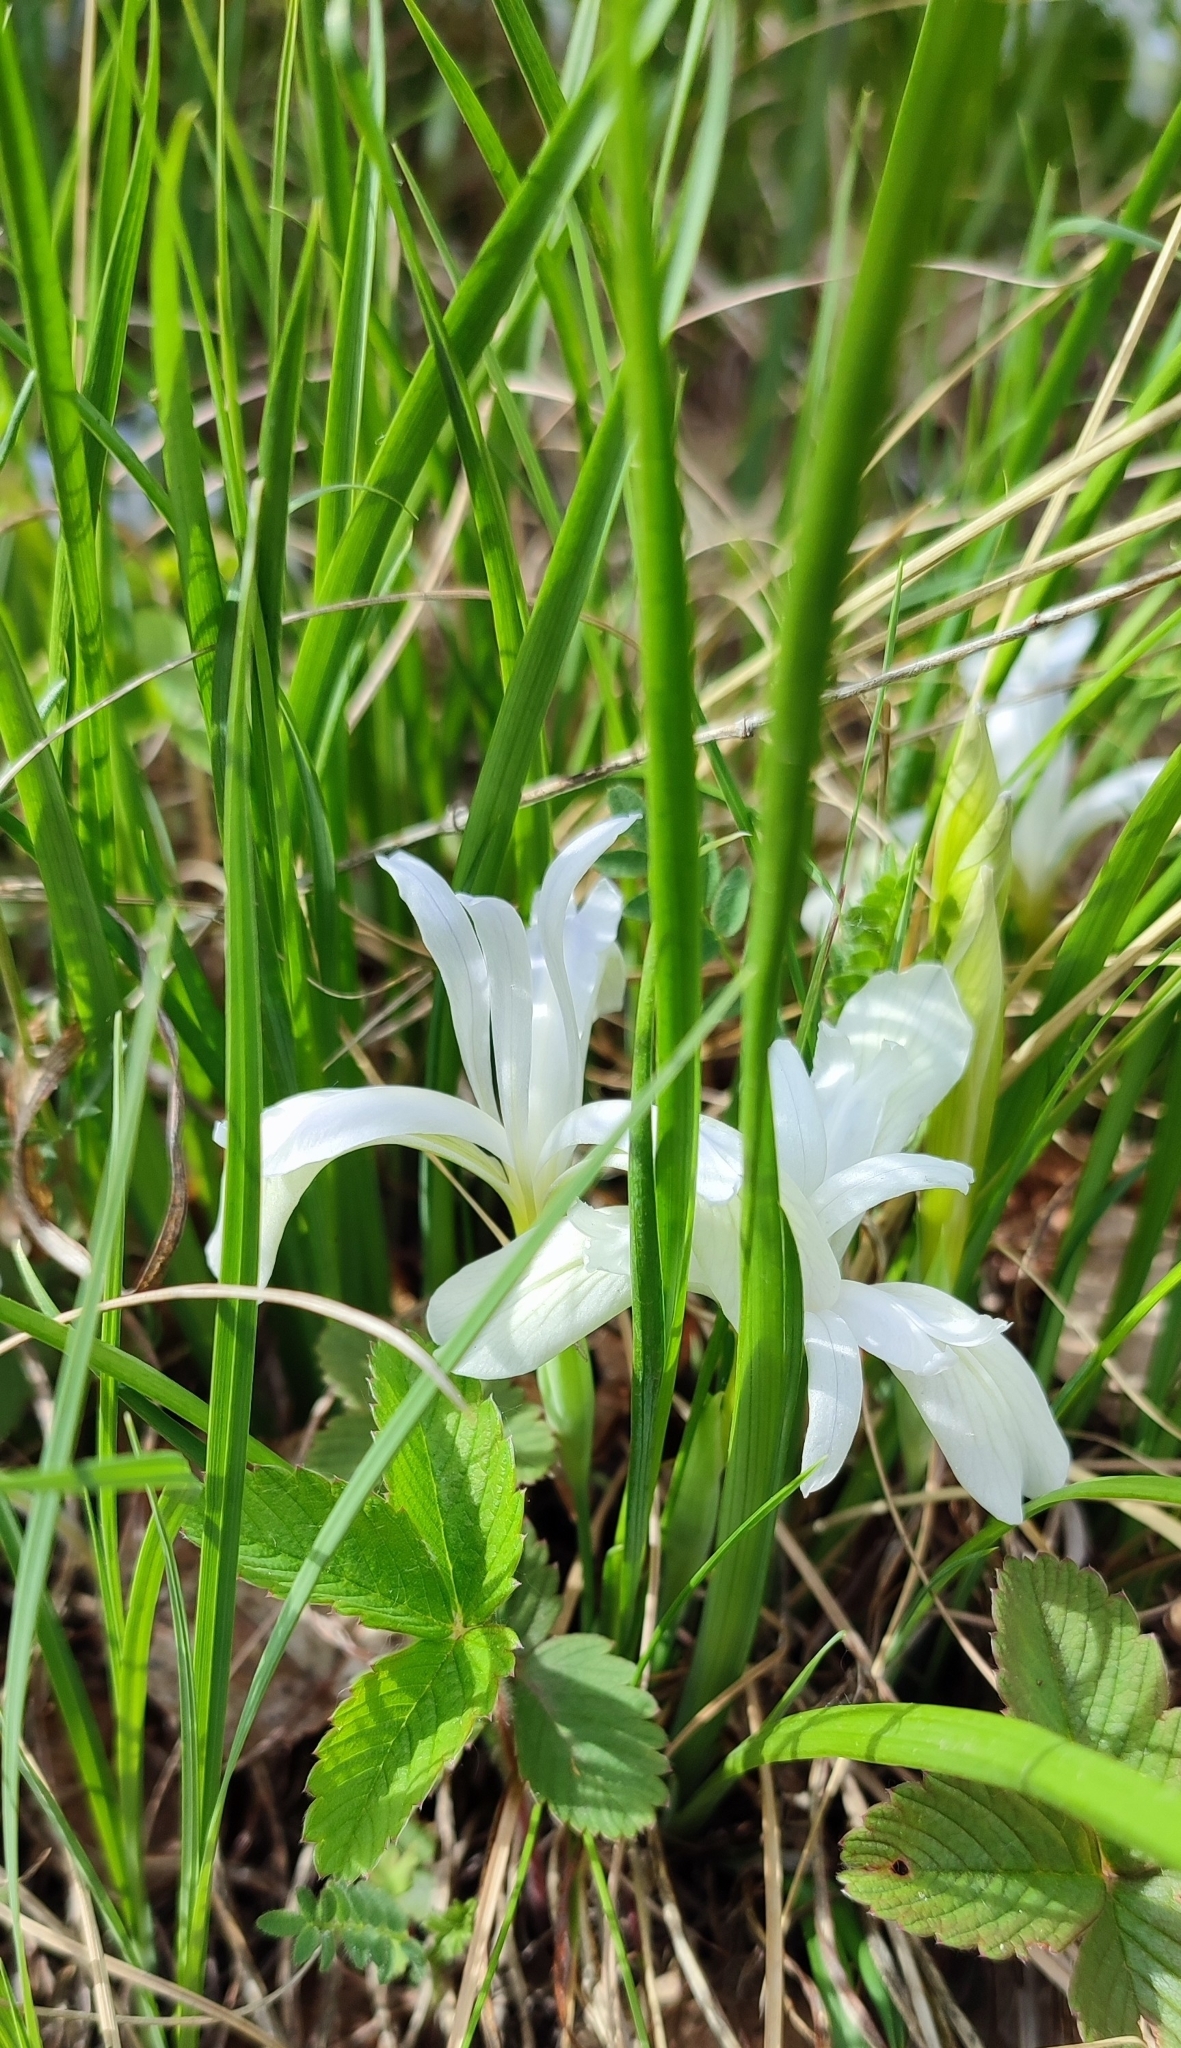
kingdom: Plantae
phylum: Tracheophyta
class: Liliopsida
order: Asparagales
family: Iridaceae
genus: Iris
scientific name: Iris ruthenica
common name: Purple-bract iris
